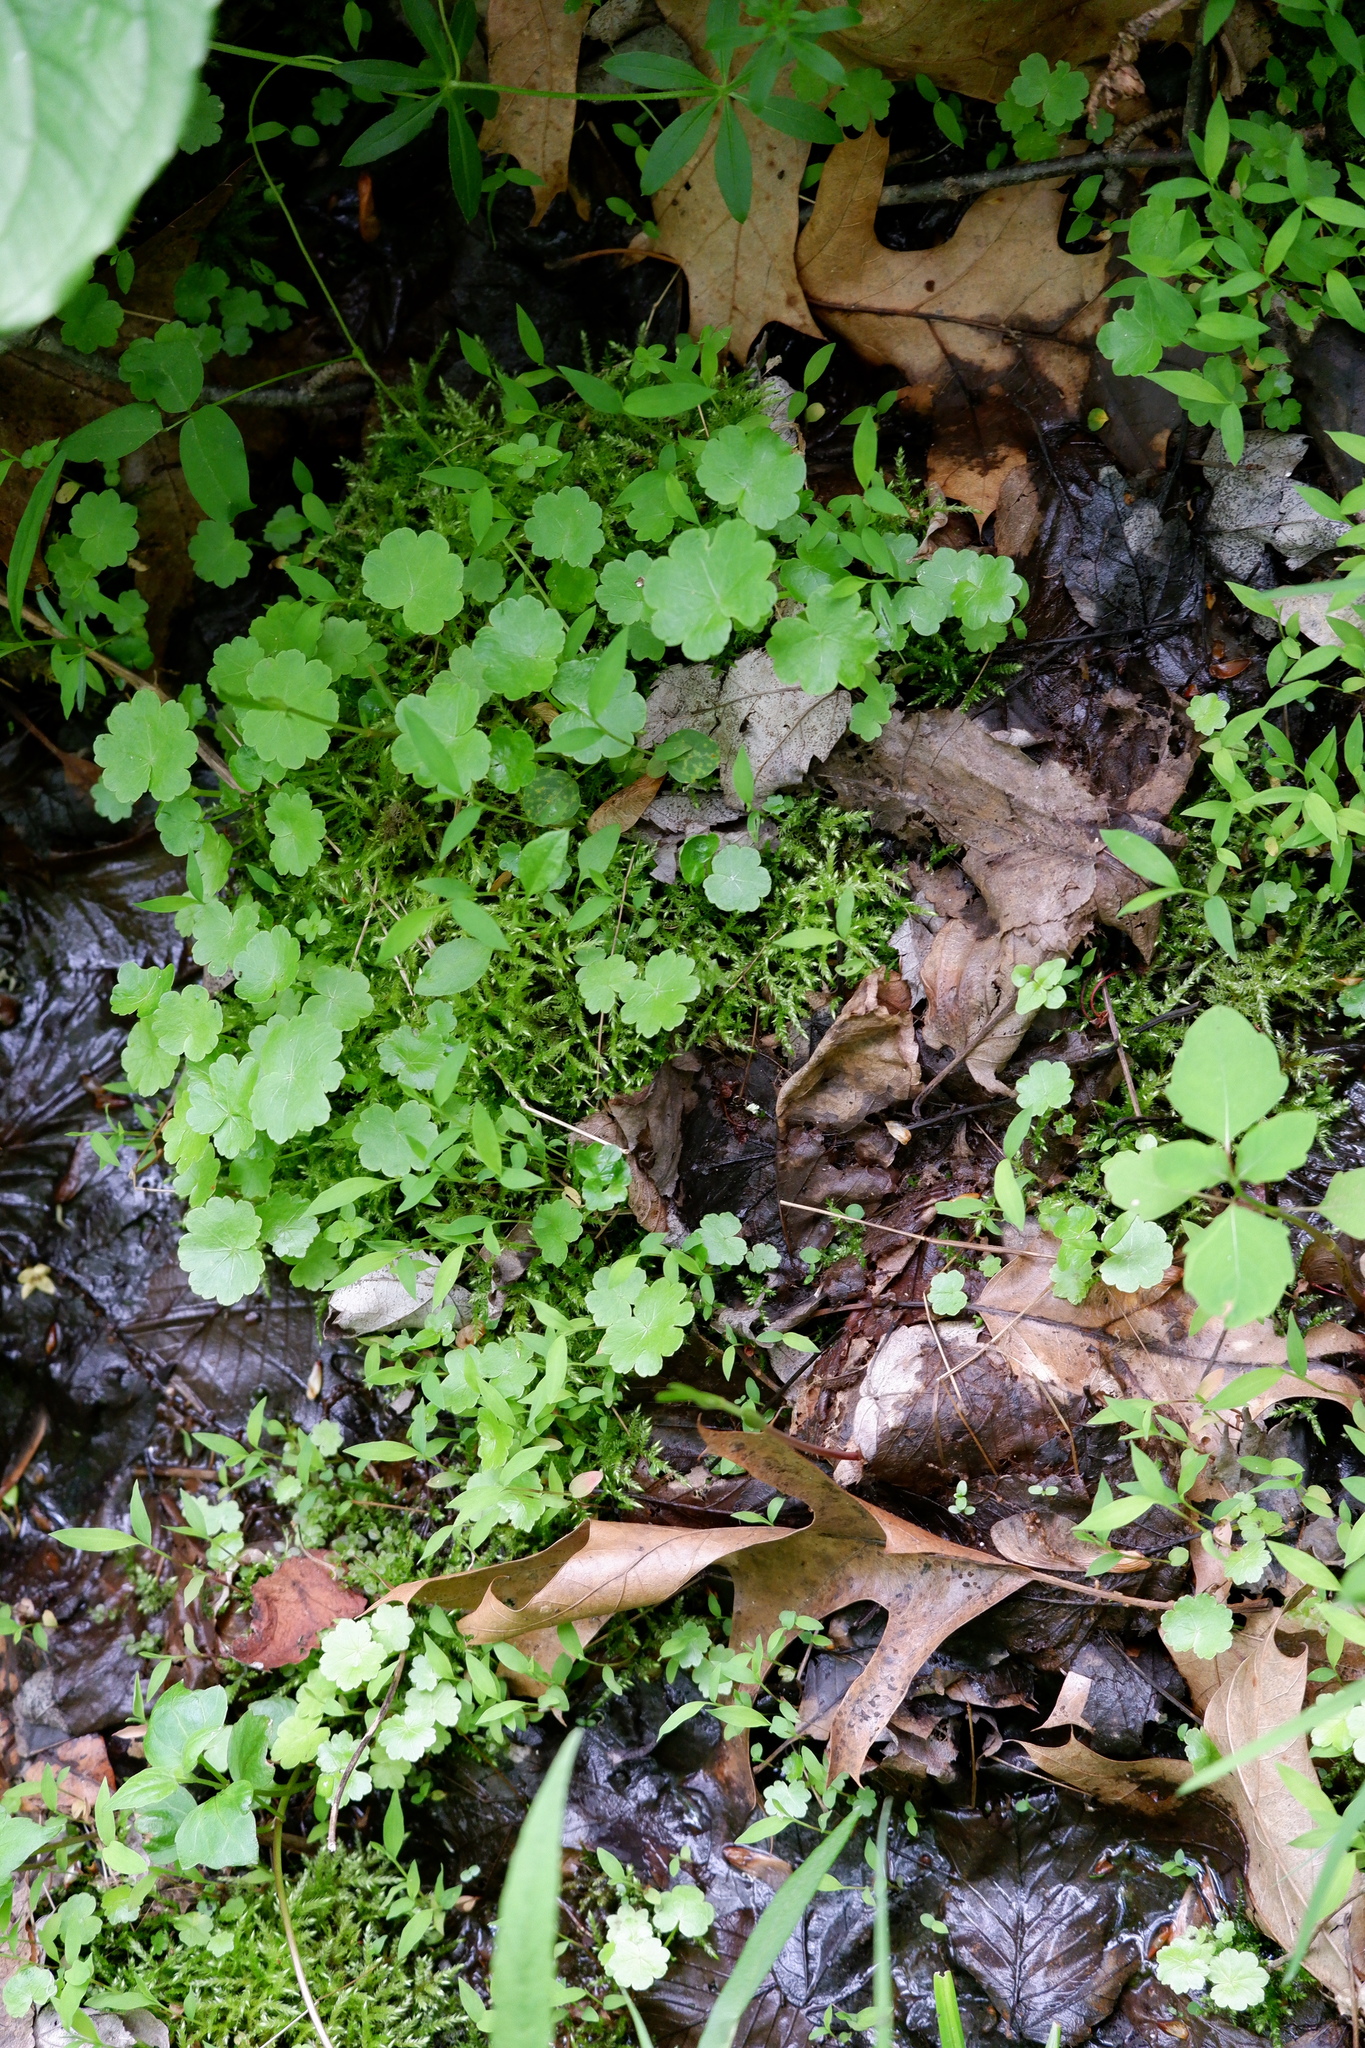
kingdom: Plantae
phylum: Tracheophyta
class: Magnoliopsida
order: Apiales
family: Araliaceae
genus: Hydrocotyle
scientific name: Hydrocotyle americana
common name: American water-pennywort
